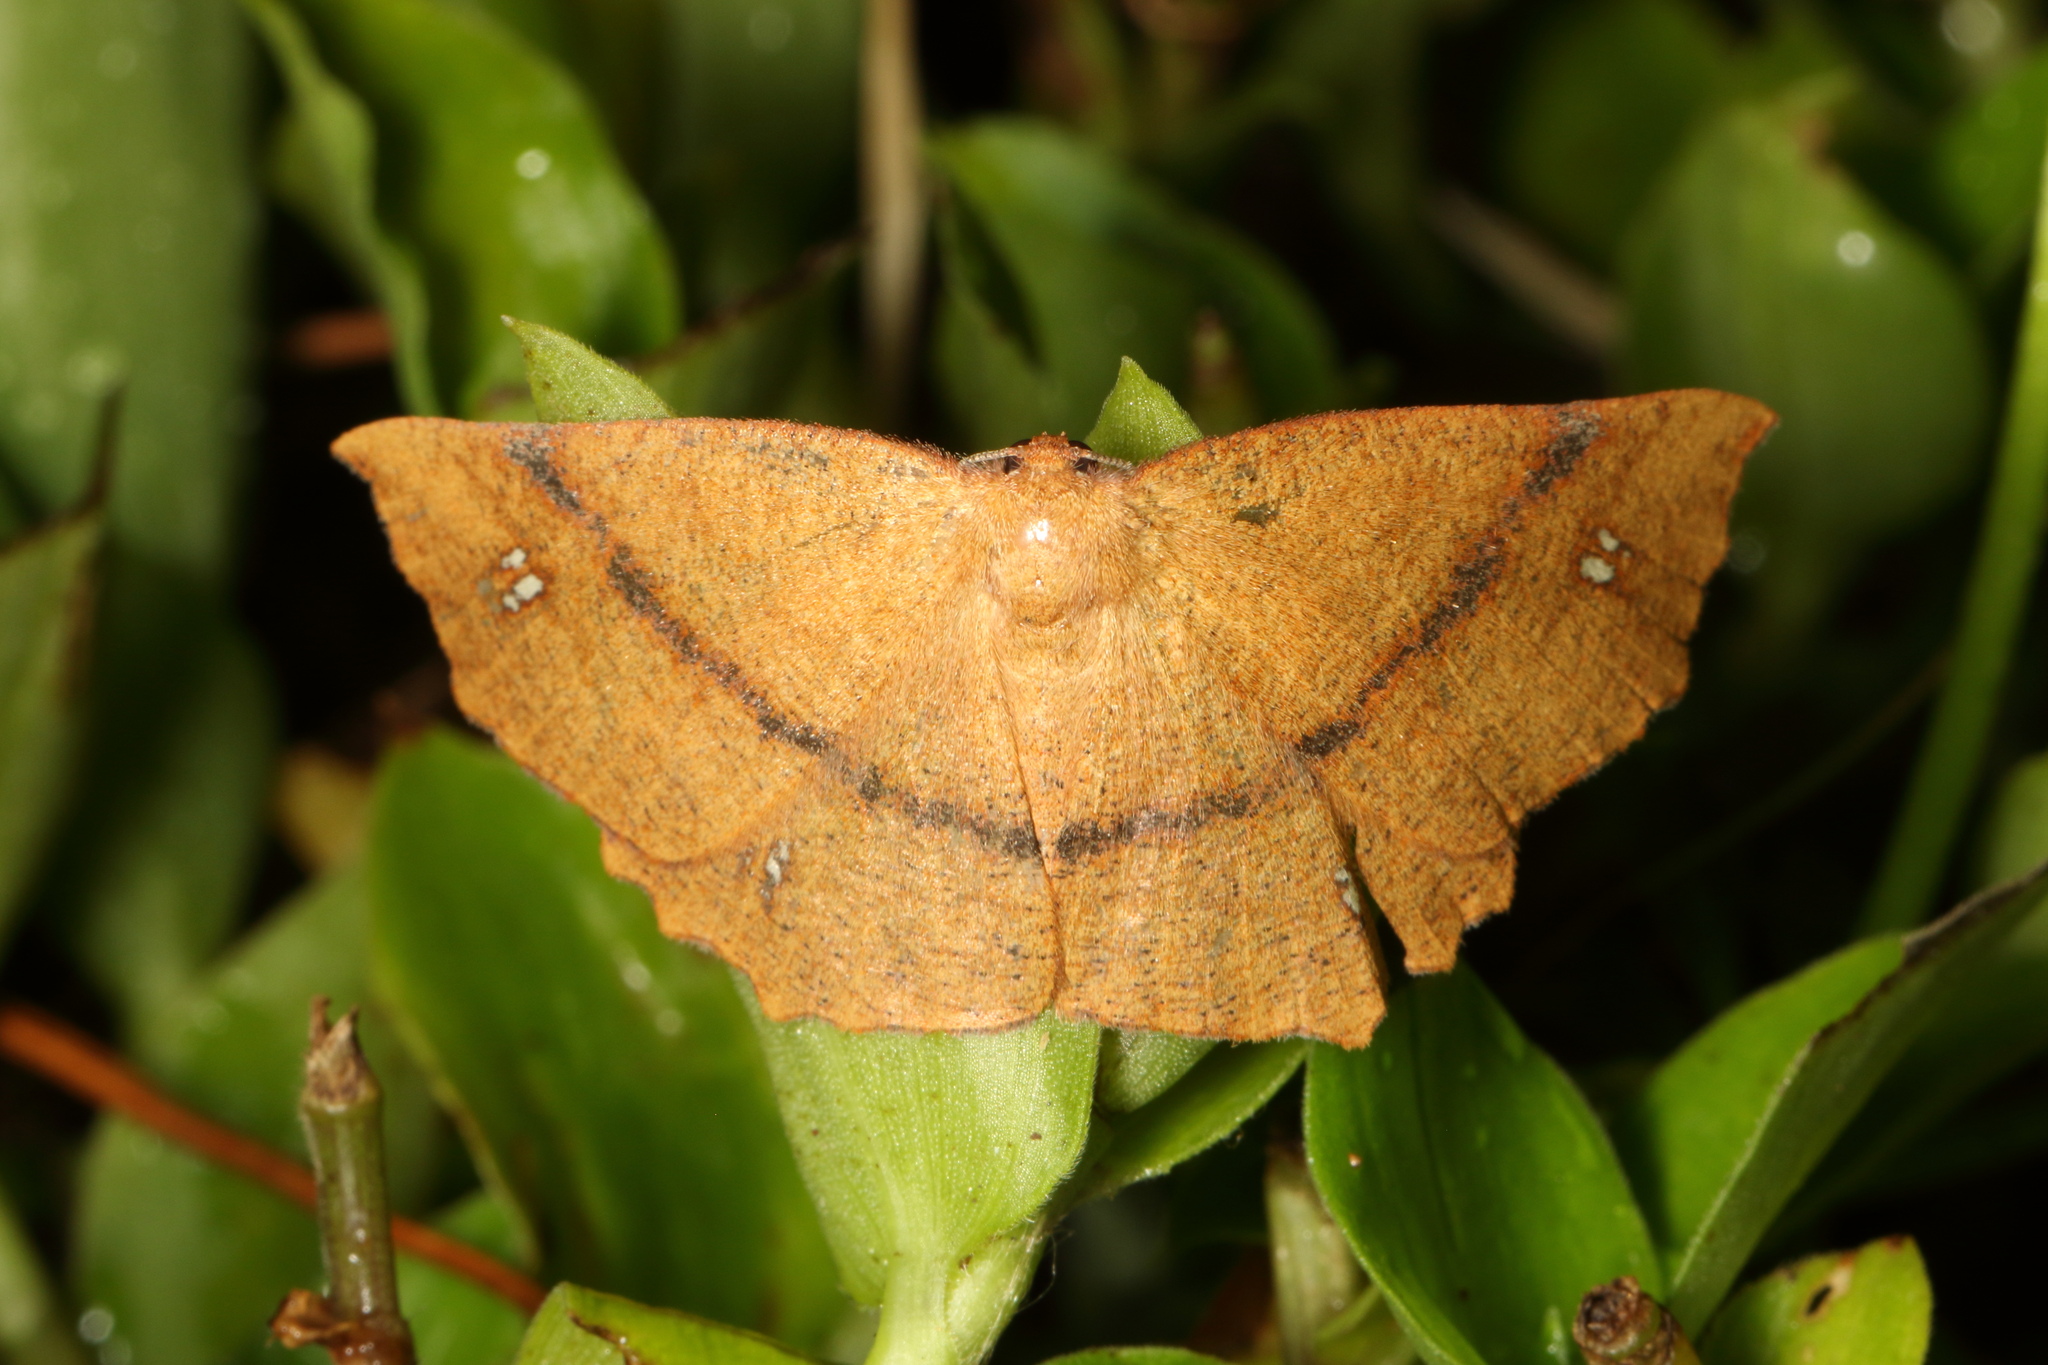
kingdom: Animalia
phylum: Arthropoda
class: Insecta
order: Lepidoptera
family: Geometridae
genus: Xyridacma
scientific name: Xyridacma ustaria
